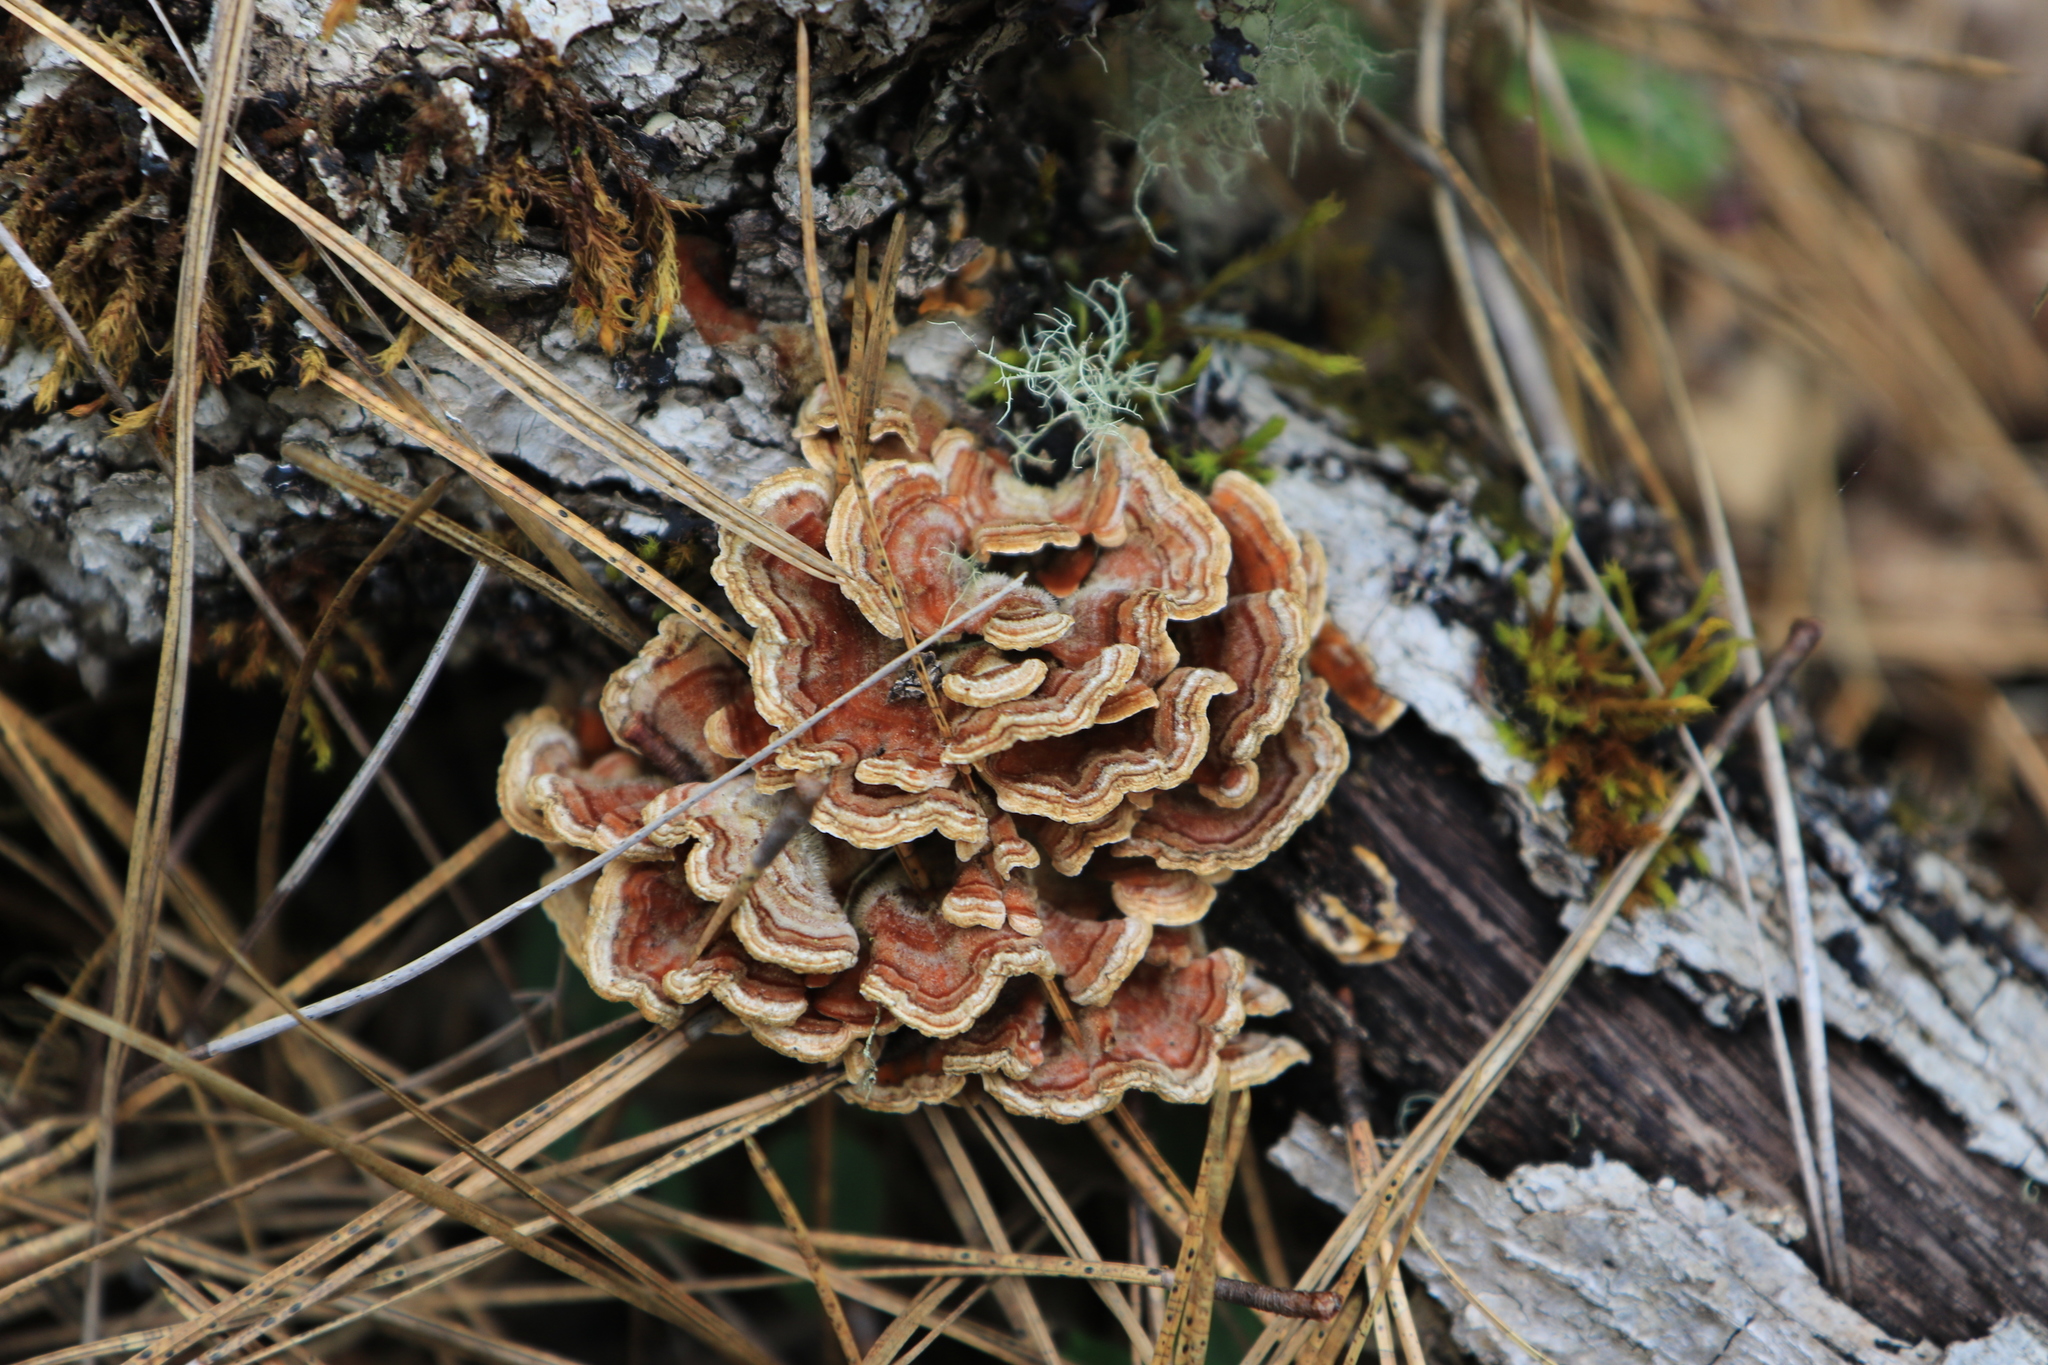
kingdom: Fungi
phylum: Basidiomycota
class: Agaricomycetes
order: Russulales
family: Stereaceae
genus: Stereum
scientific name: Stereum hirsutum
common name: Hairy curtain crust
